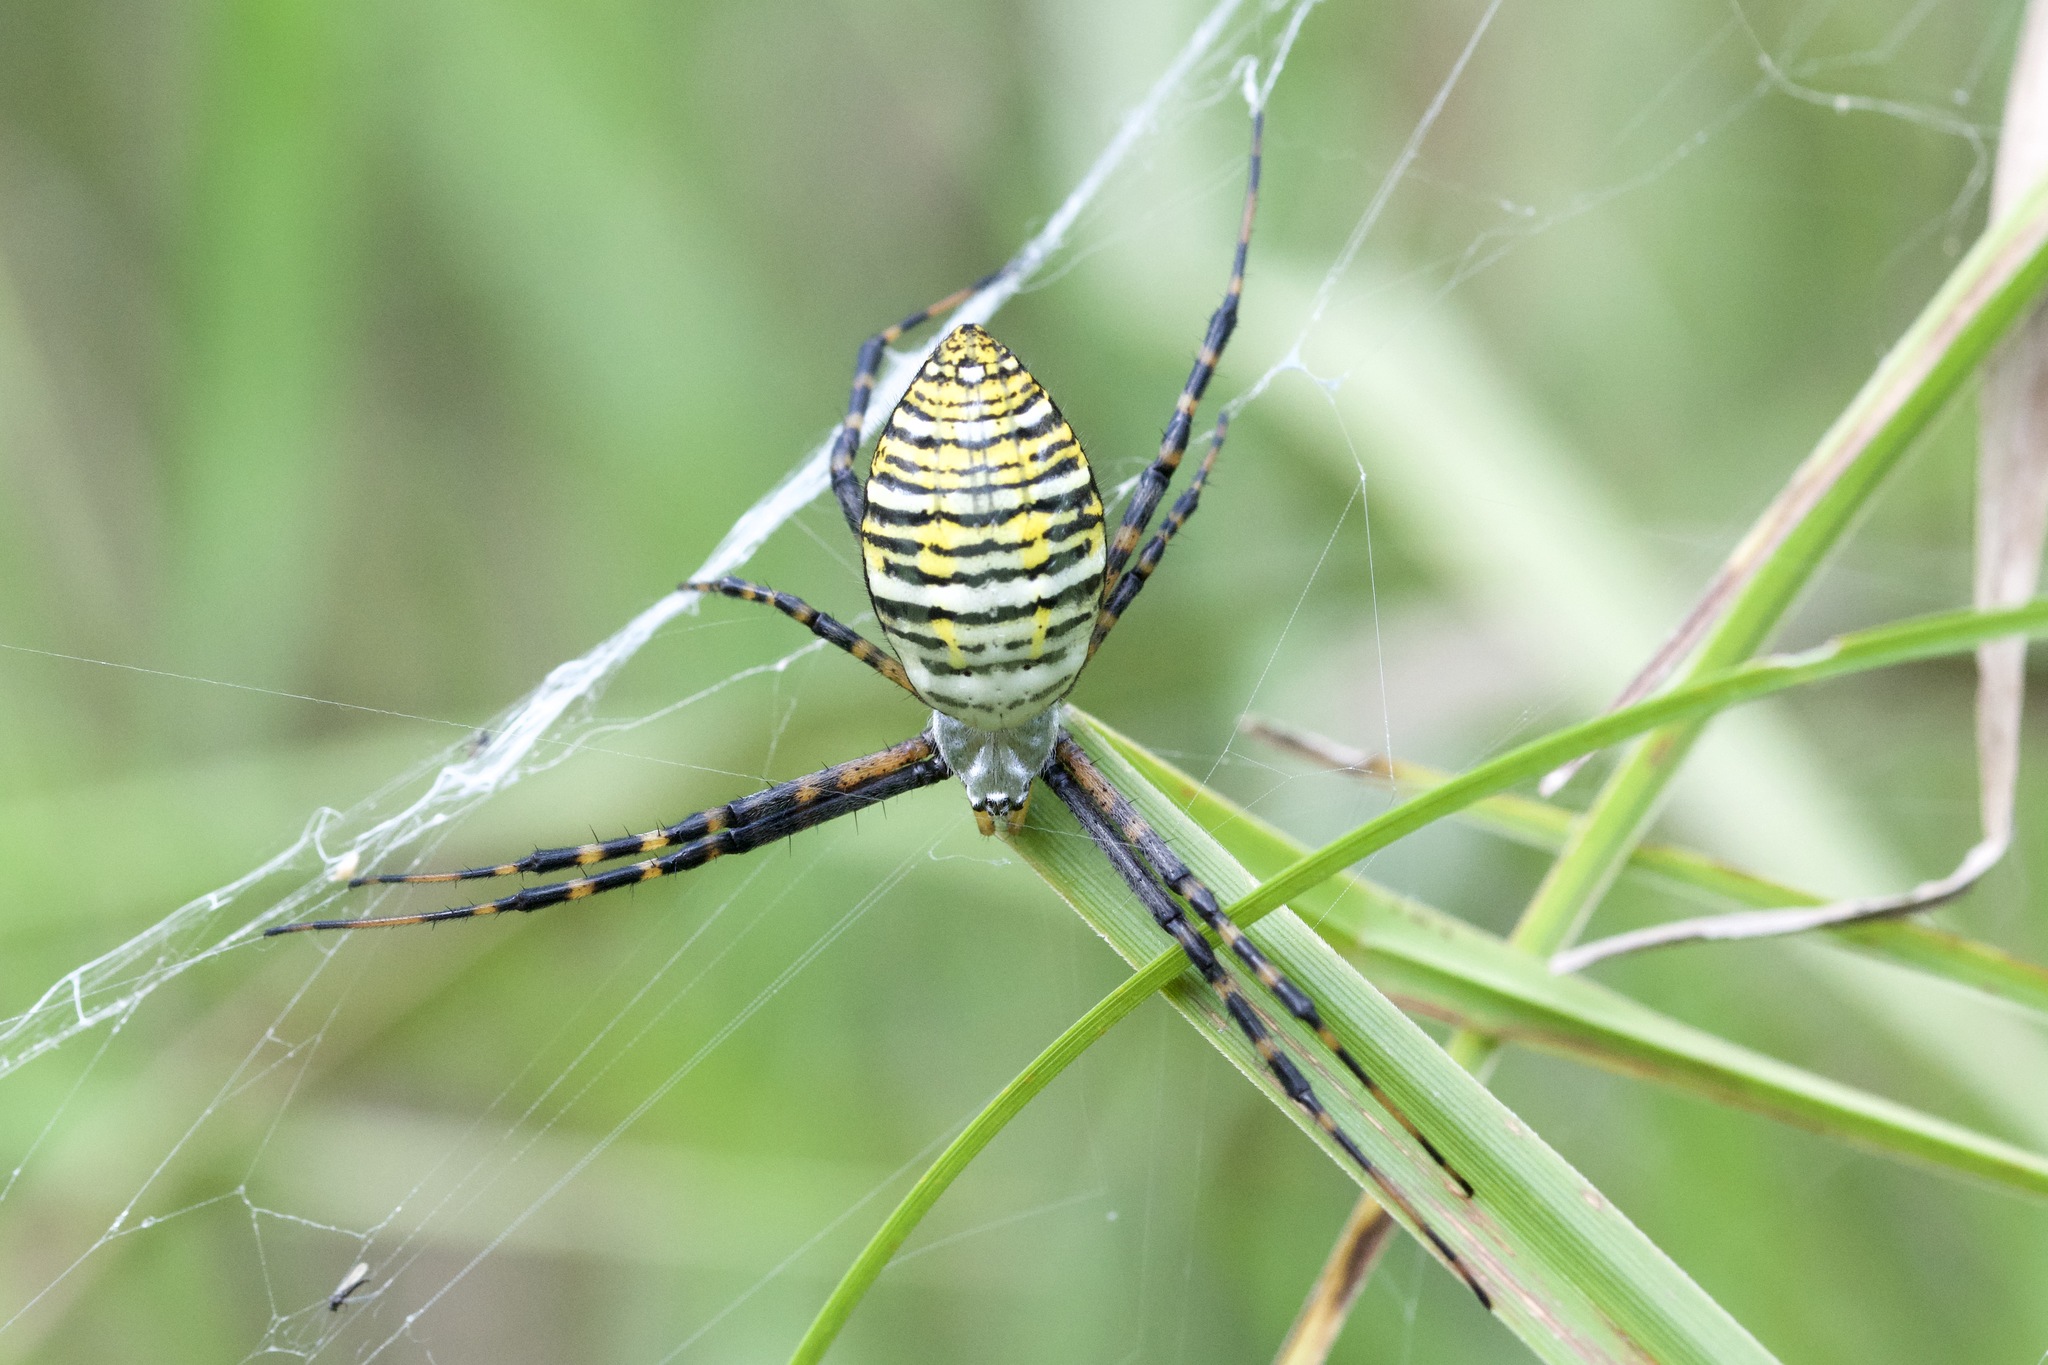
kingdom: Animalia
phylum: Arthropoda
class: Arachnida
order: Araneae
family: Araneidae
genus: Argiope
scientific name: Argiope trifasciata
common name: Banded garden spider
